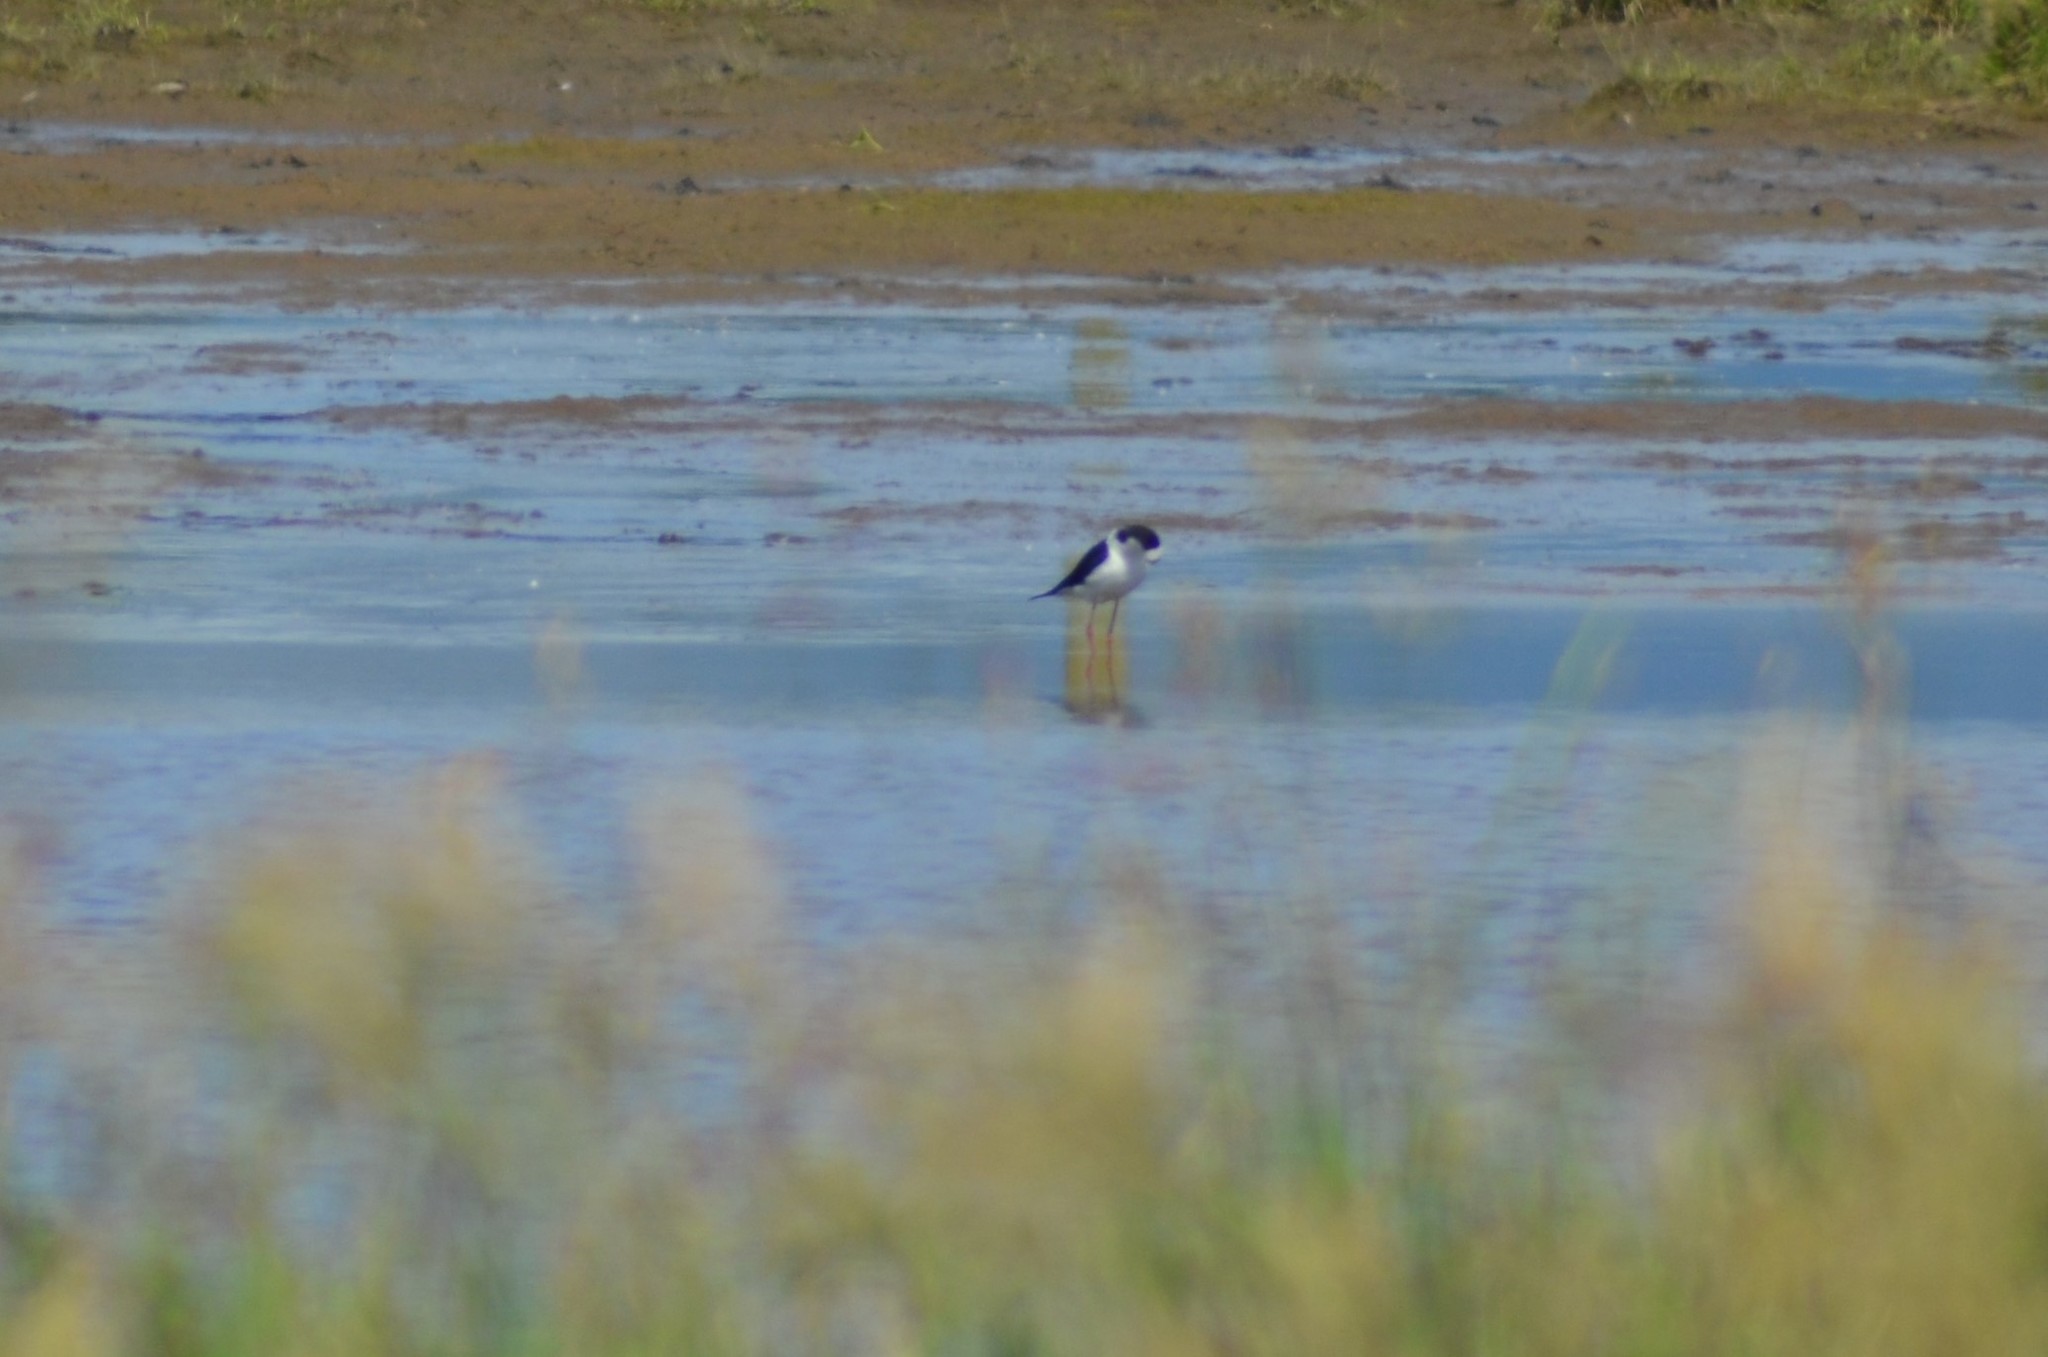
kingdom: Animalia
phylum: Chordata
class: Aves
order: Charadriiformes
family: Recurvirostridae
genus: Himantopus
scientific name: Himantopus leucocephalus
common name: White-headed stilt
